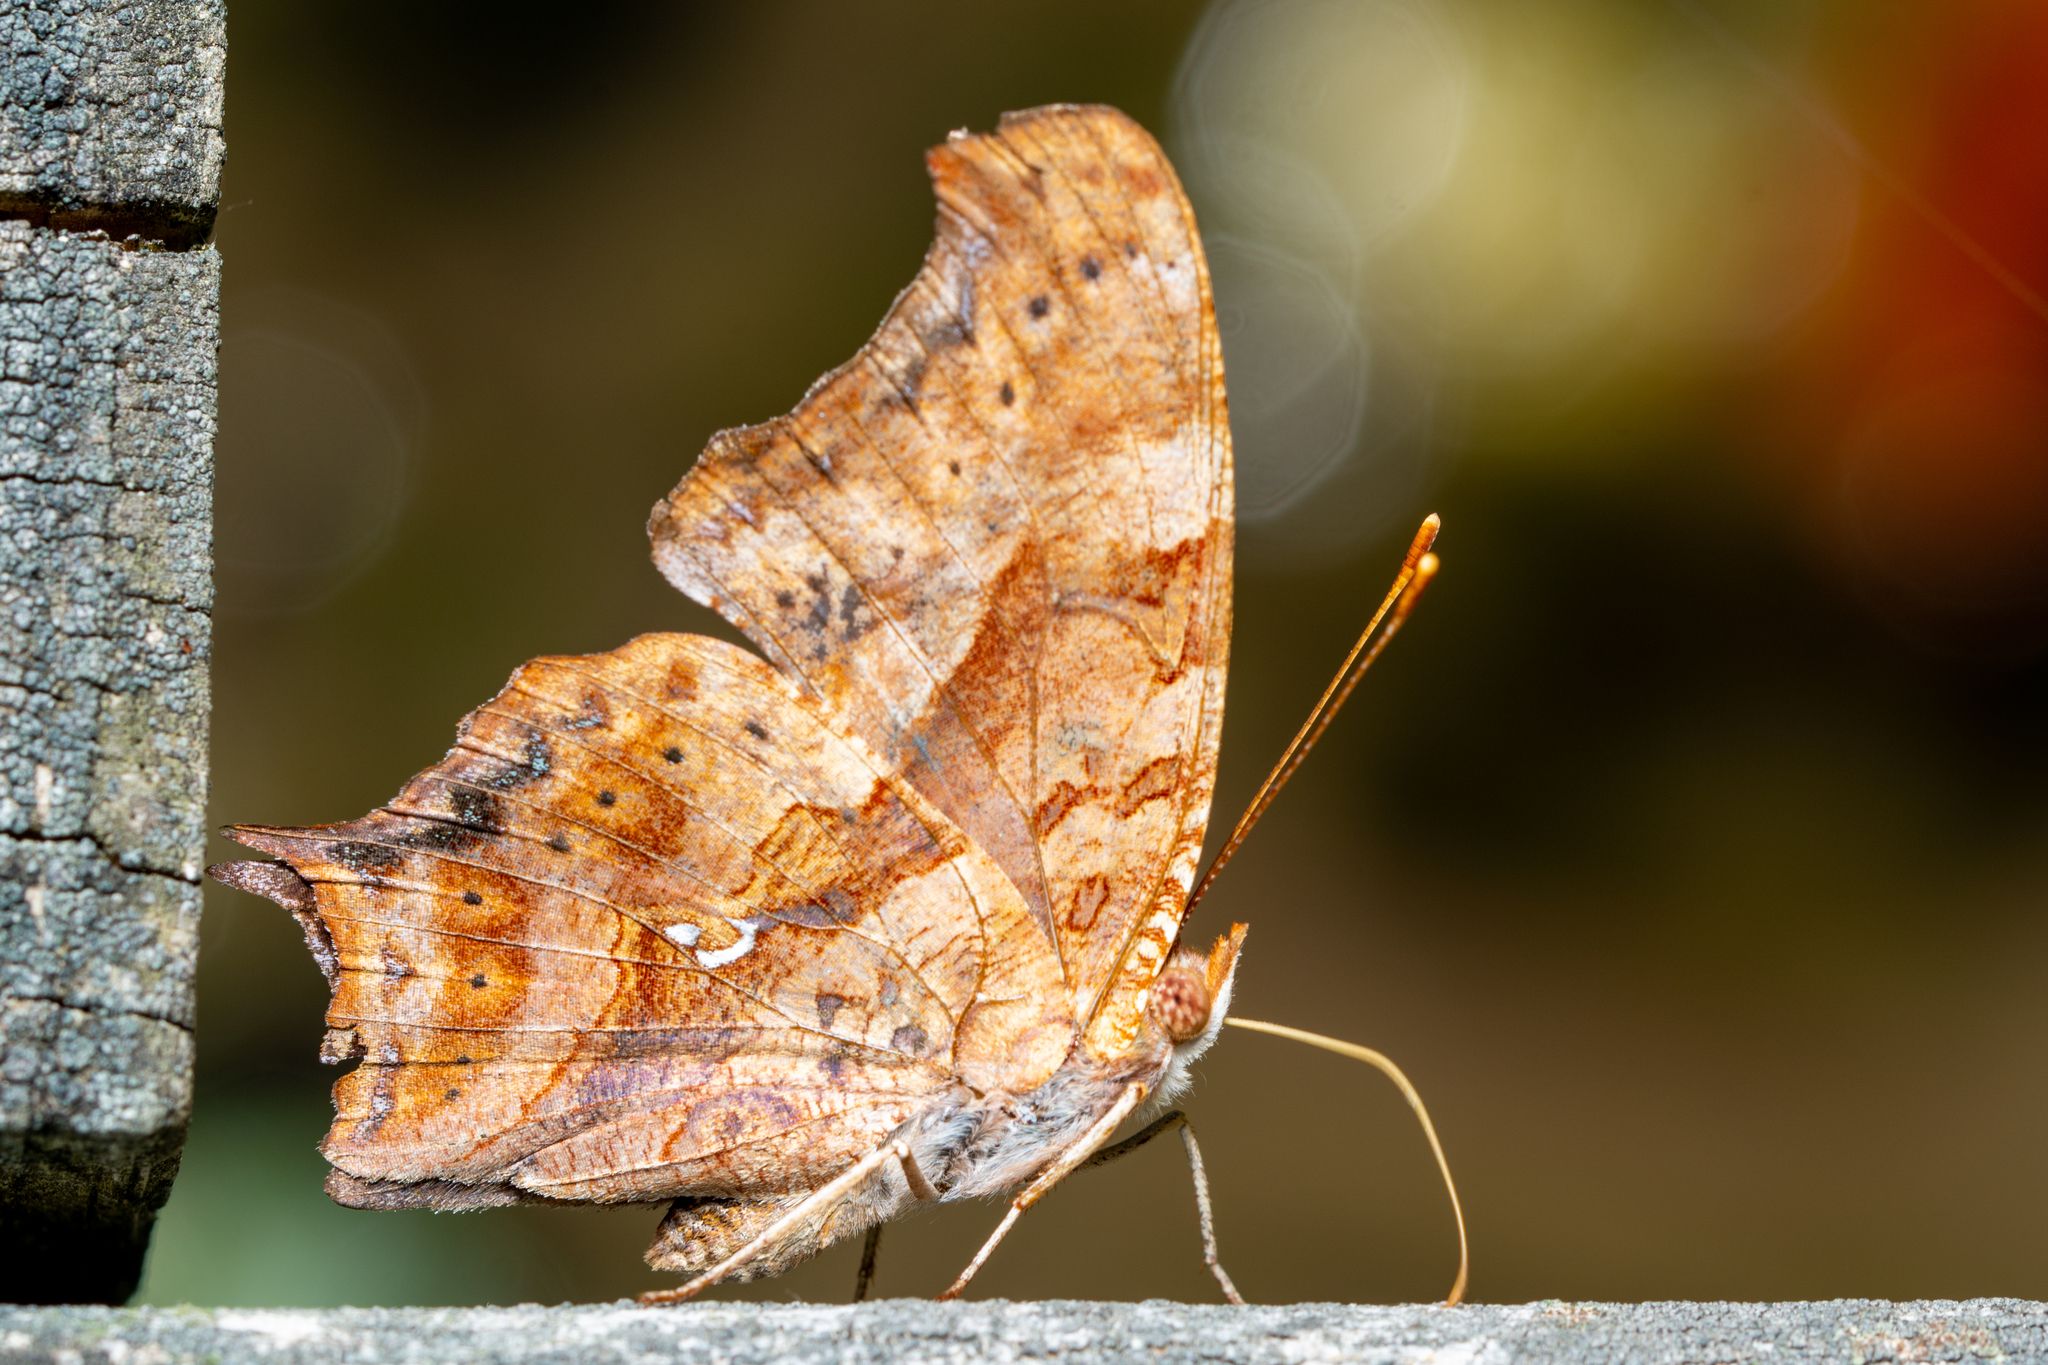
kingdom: Animalia
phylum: Arthropoda
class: Insecta
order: Lepidoptera
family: Nymphalidae
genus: Polygonia
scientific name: Polygonia interrogationis
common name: Question mark
